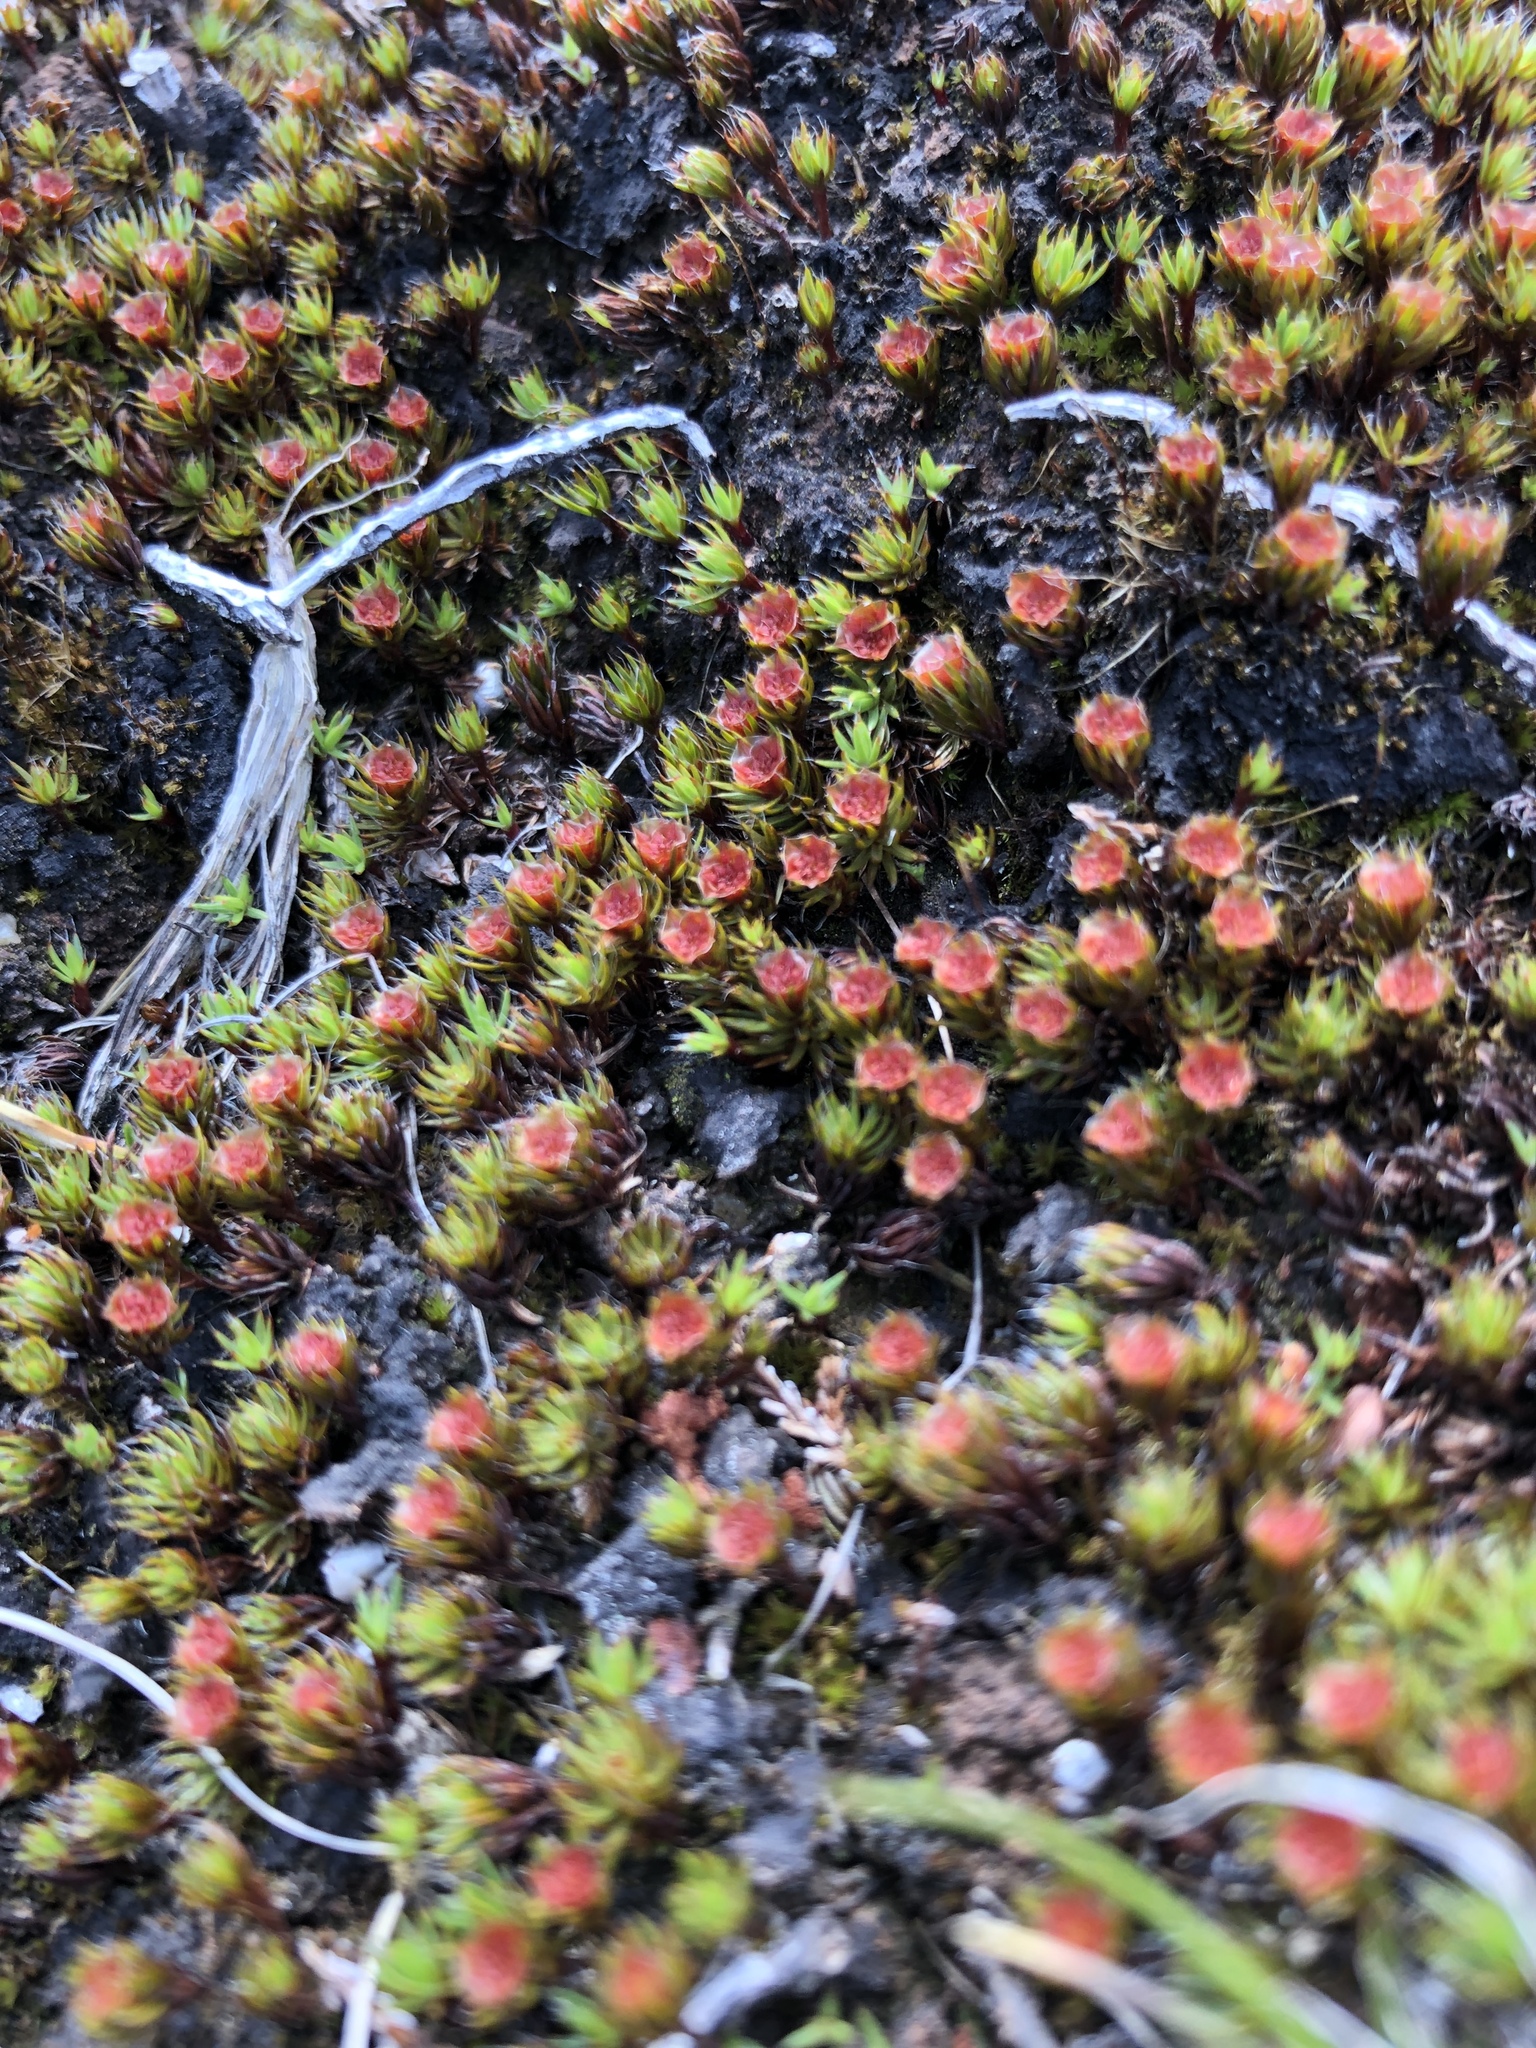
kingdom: Plantae
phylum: Bryophyta
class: Polytrichopsida
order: Polytrichales
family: Polytrichaceae
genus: Polytrichum
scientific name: Polytrichum piliferum
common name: Bristly haircap
